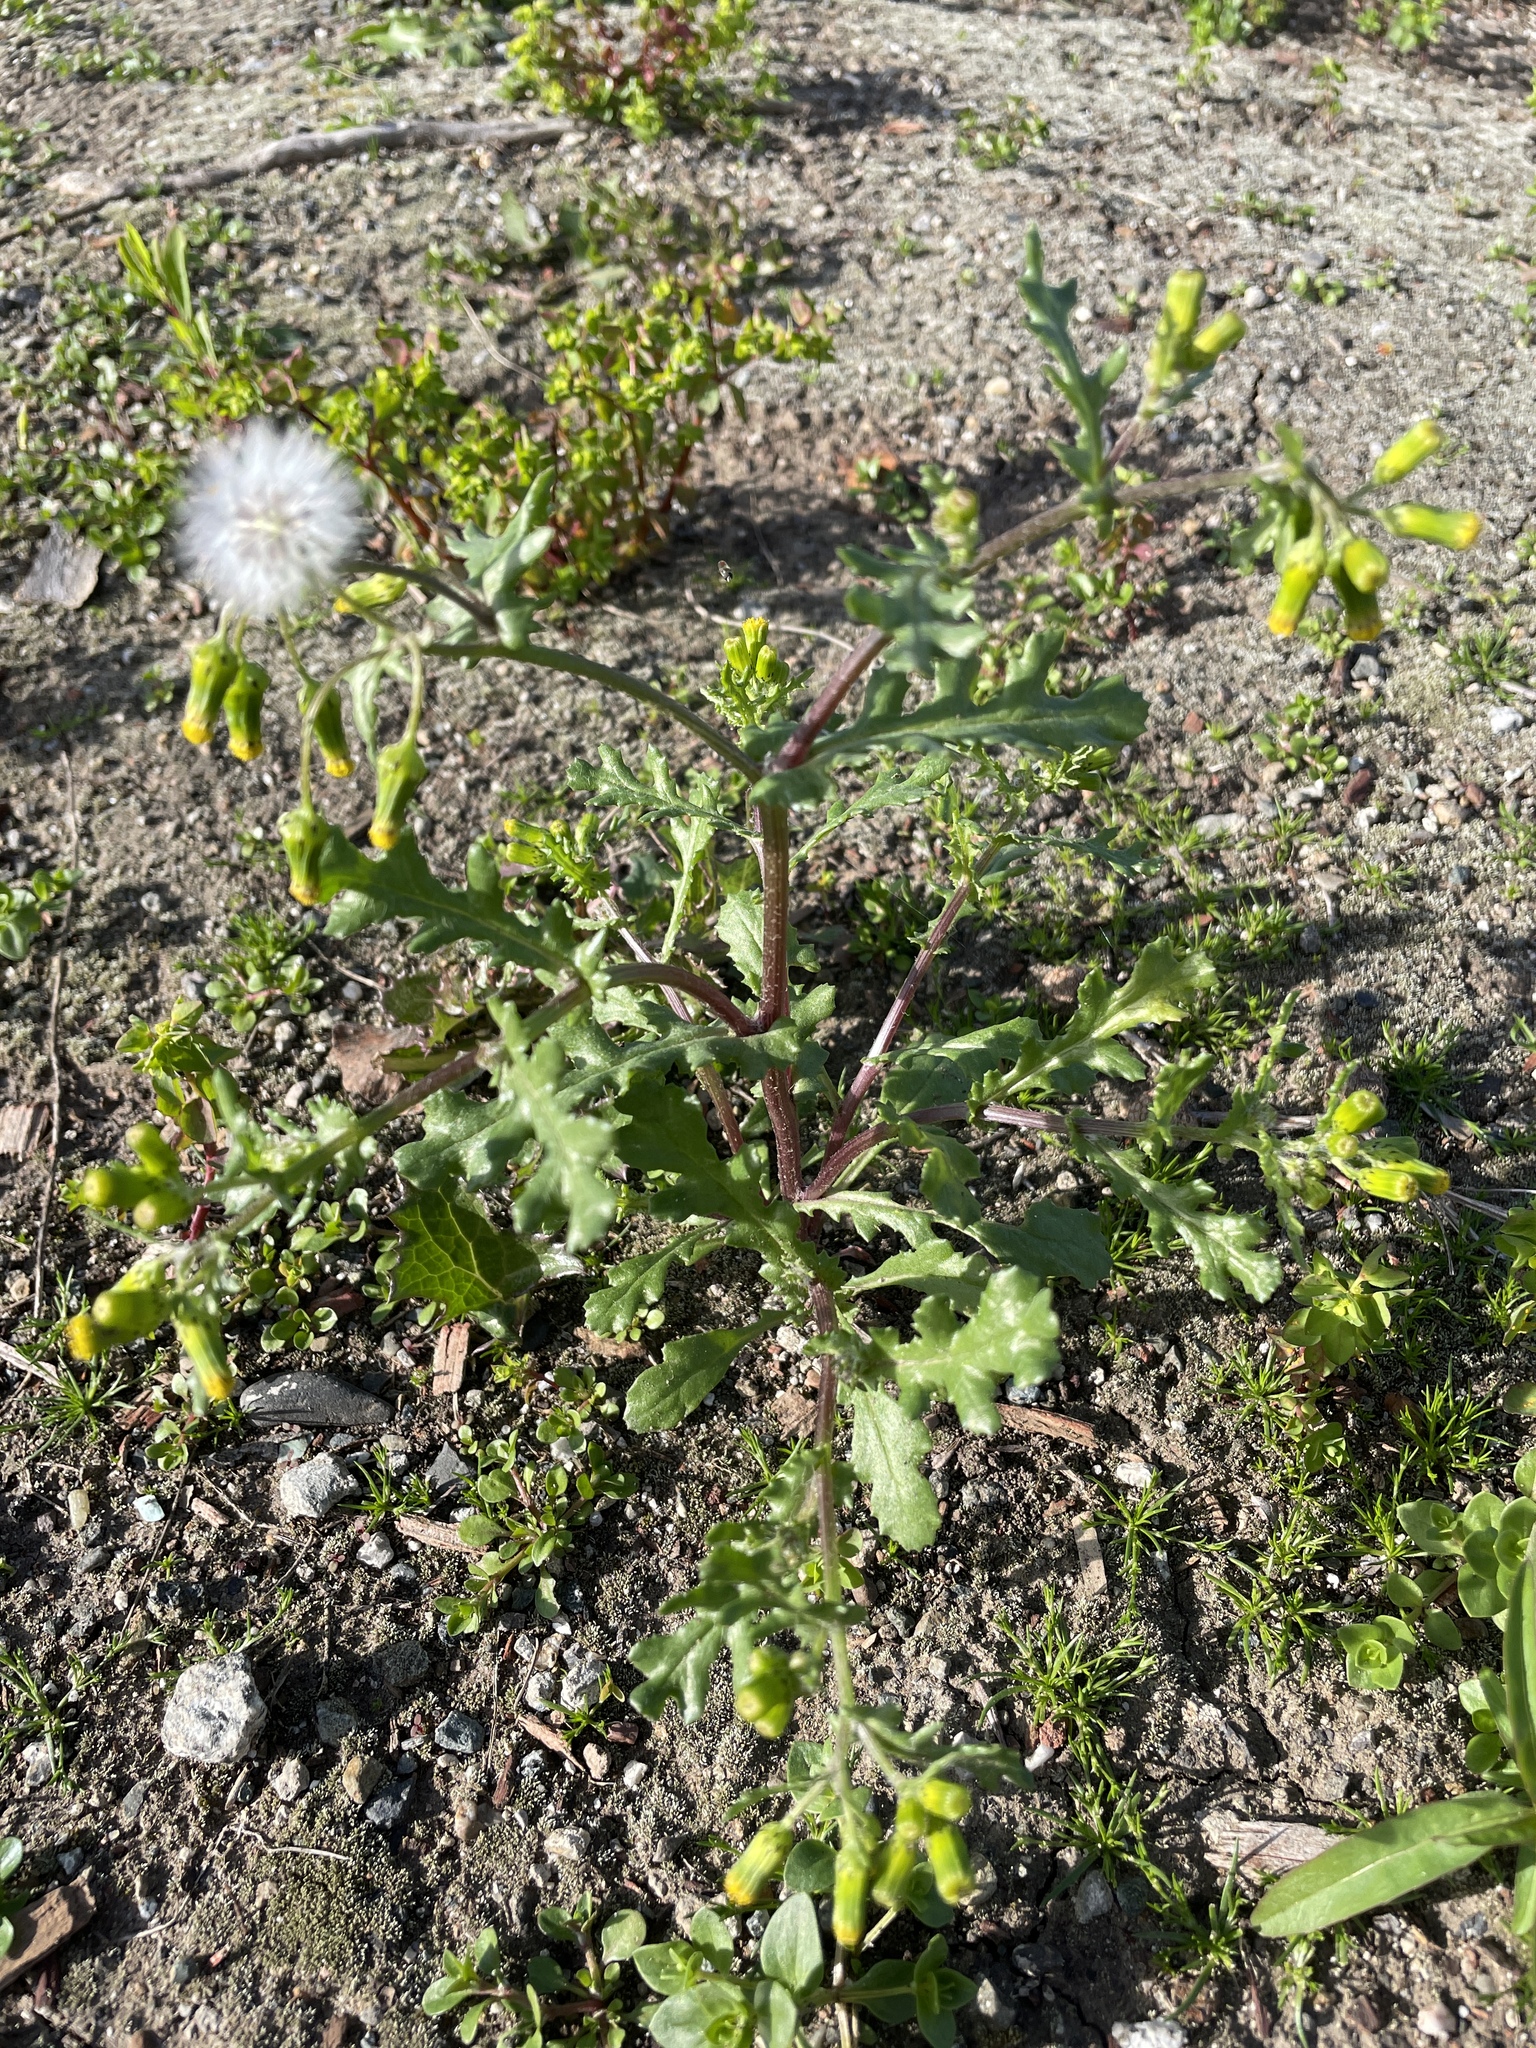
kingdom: Plantae
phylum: Tracheophyta
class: Magnoliopsida
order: Asterales
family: Asteraceae
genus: Senecio
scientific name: Senecio vulgaris
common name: Old-man-in-the-spring
